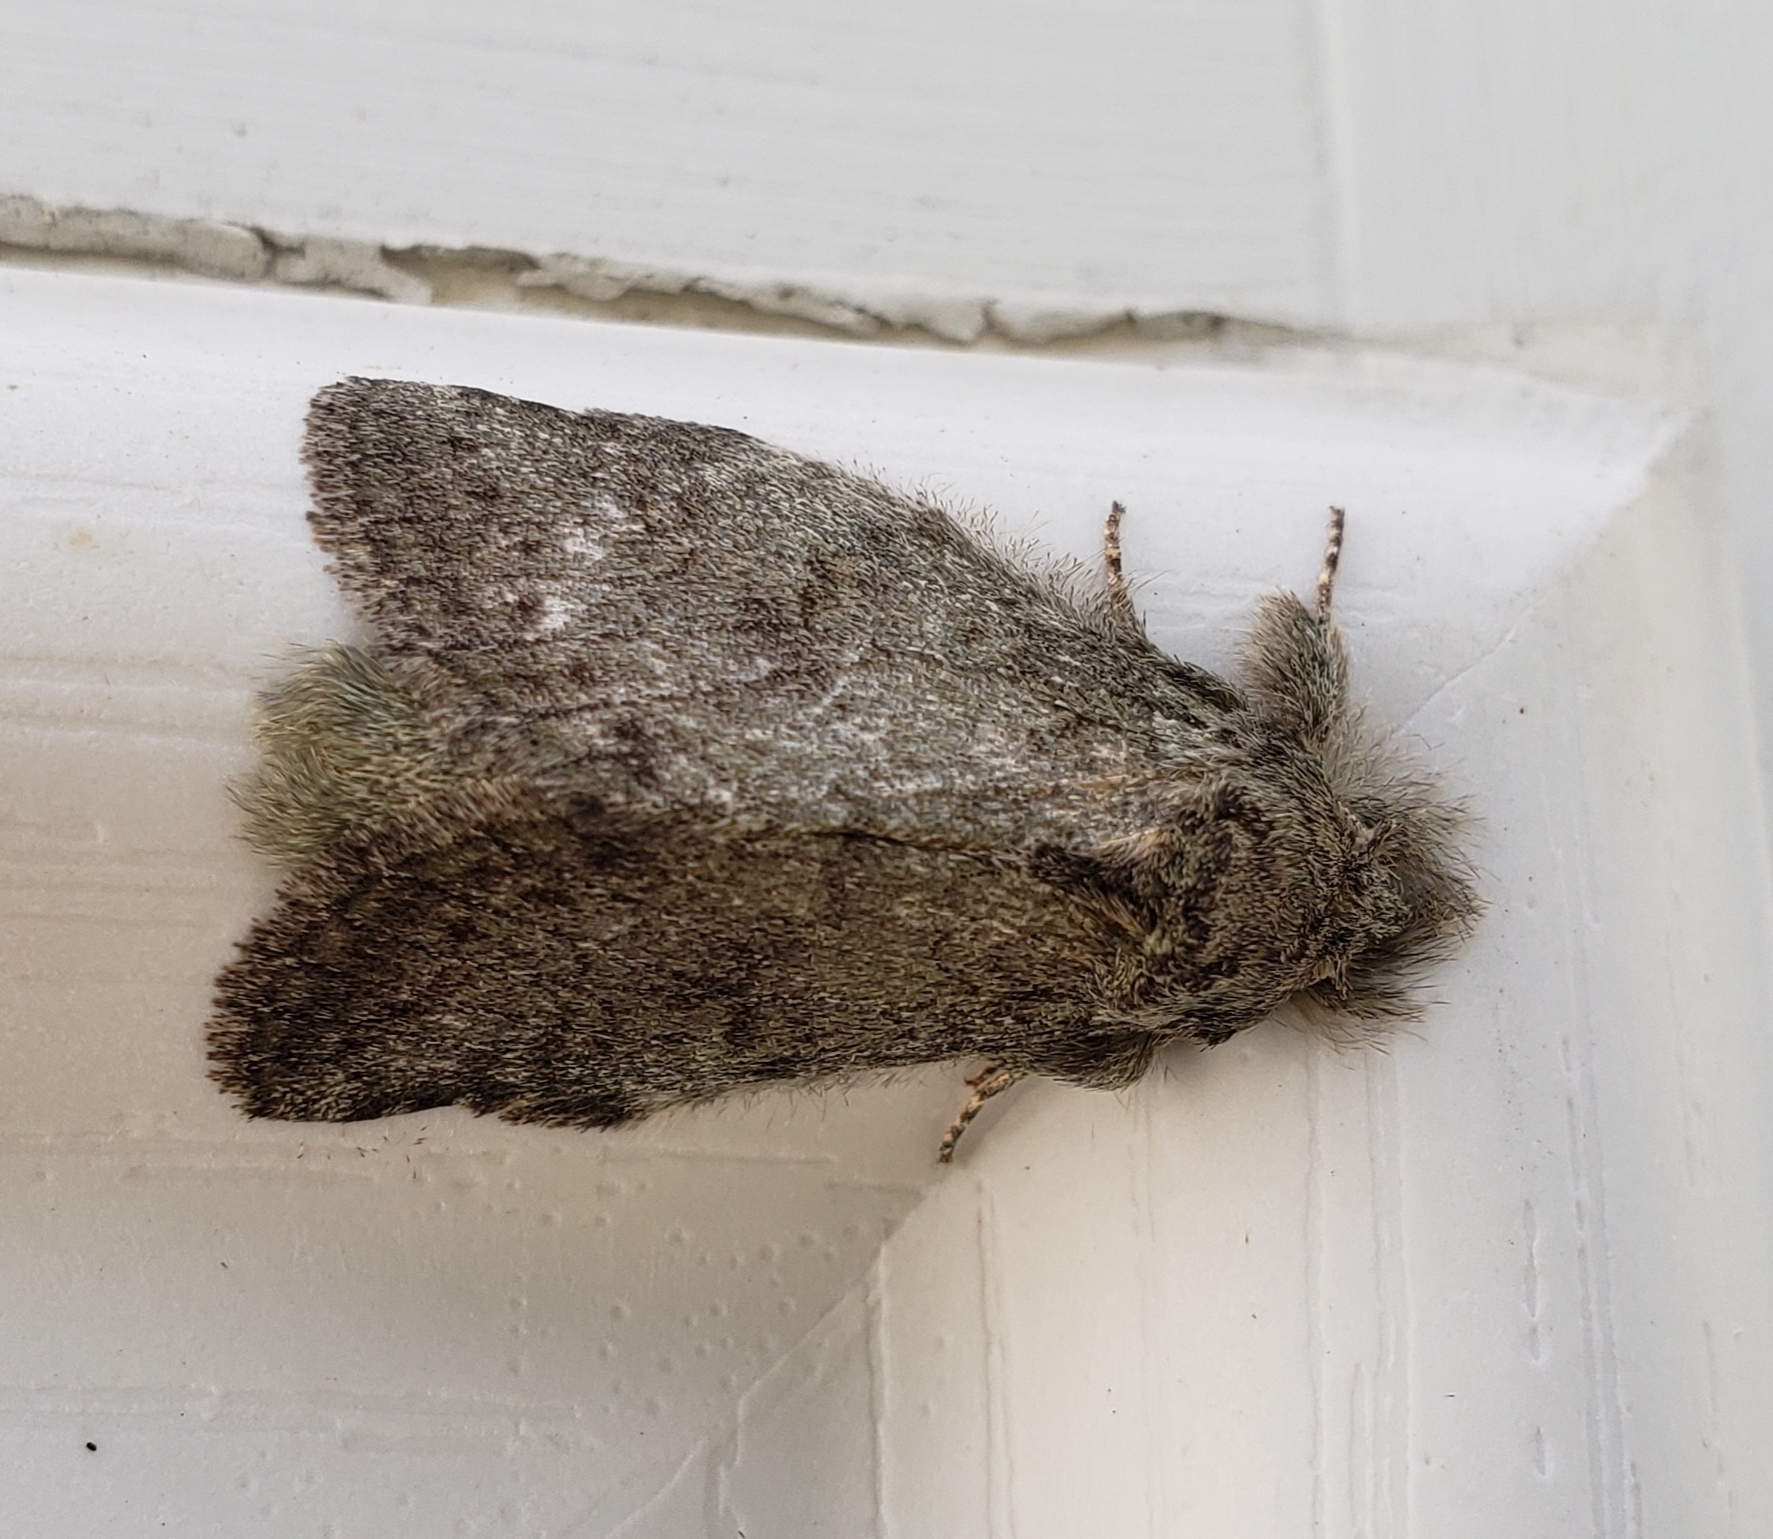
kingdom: Animalia
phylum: Arthropoda
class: Insecta
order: Lepidoptera
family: Notodontidae
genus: Disphragis
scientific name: Disphragis Cecrita guttivitta
